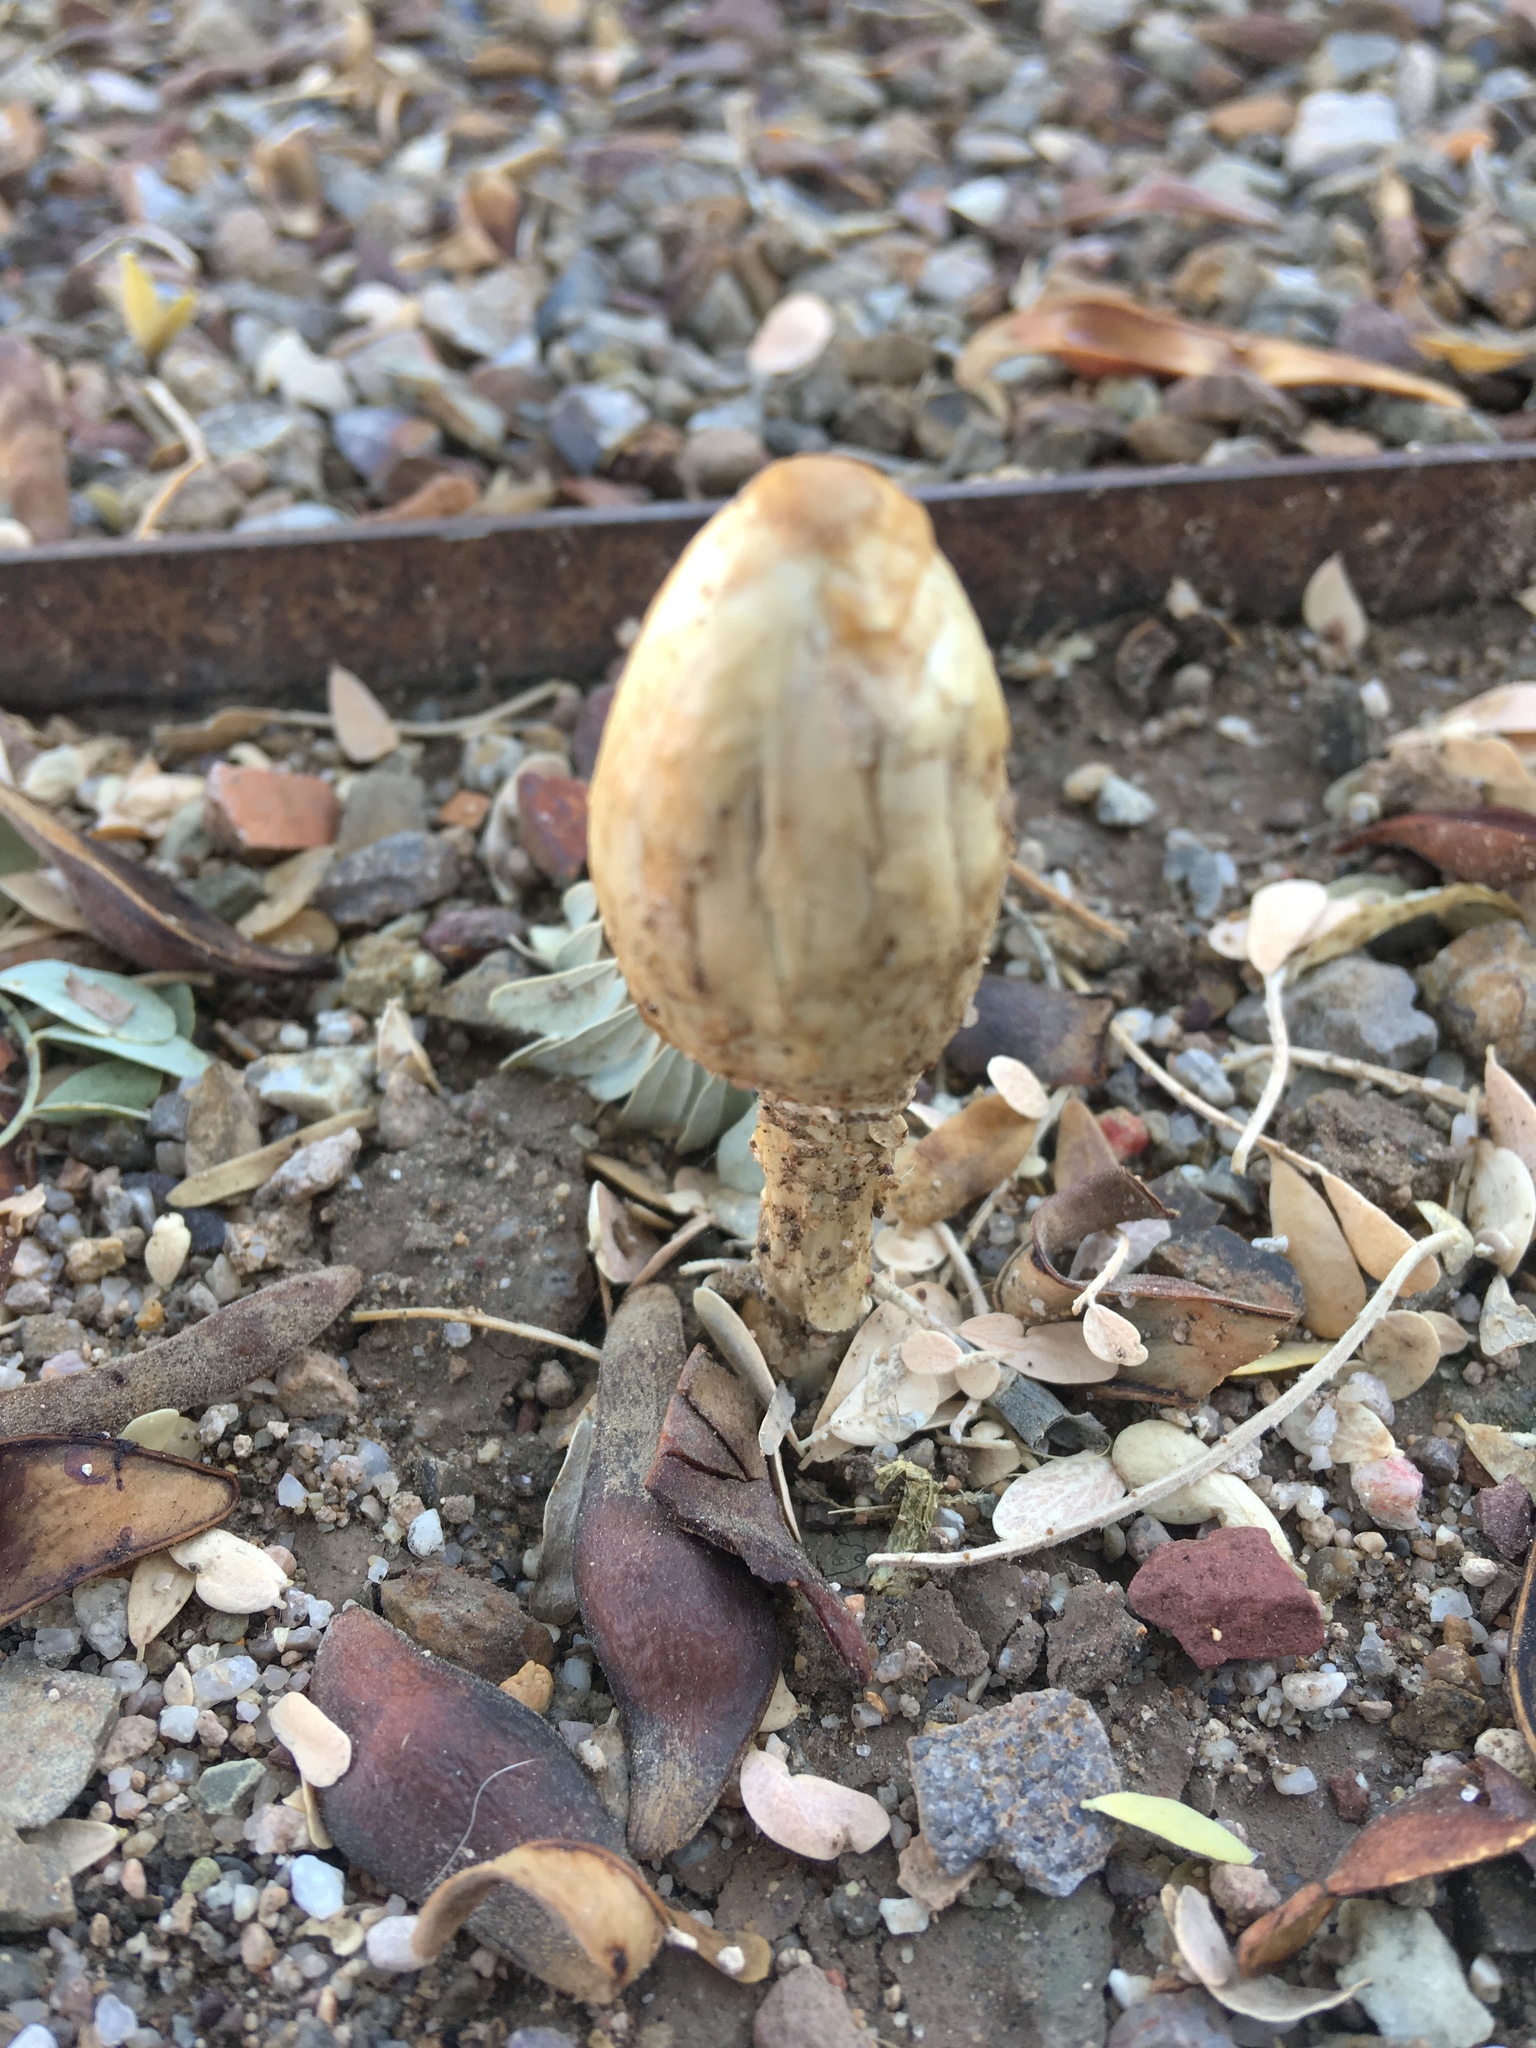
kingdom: Fungi
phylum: Basidiomycota
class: Agaricomycetes
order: Agaricales
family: Agaricaceae
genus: Podaxis
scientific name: Podaxis pistillaris
